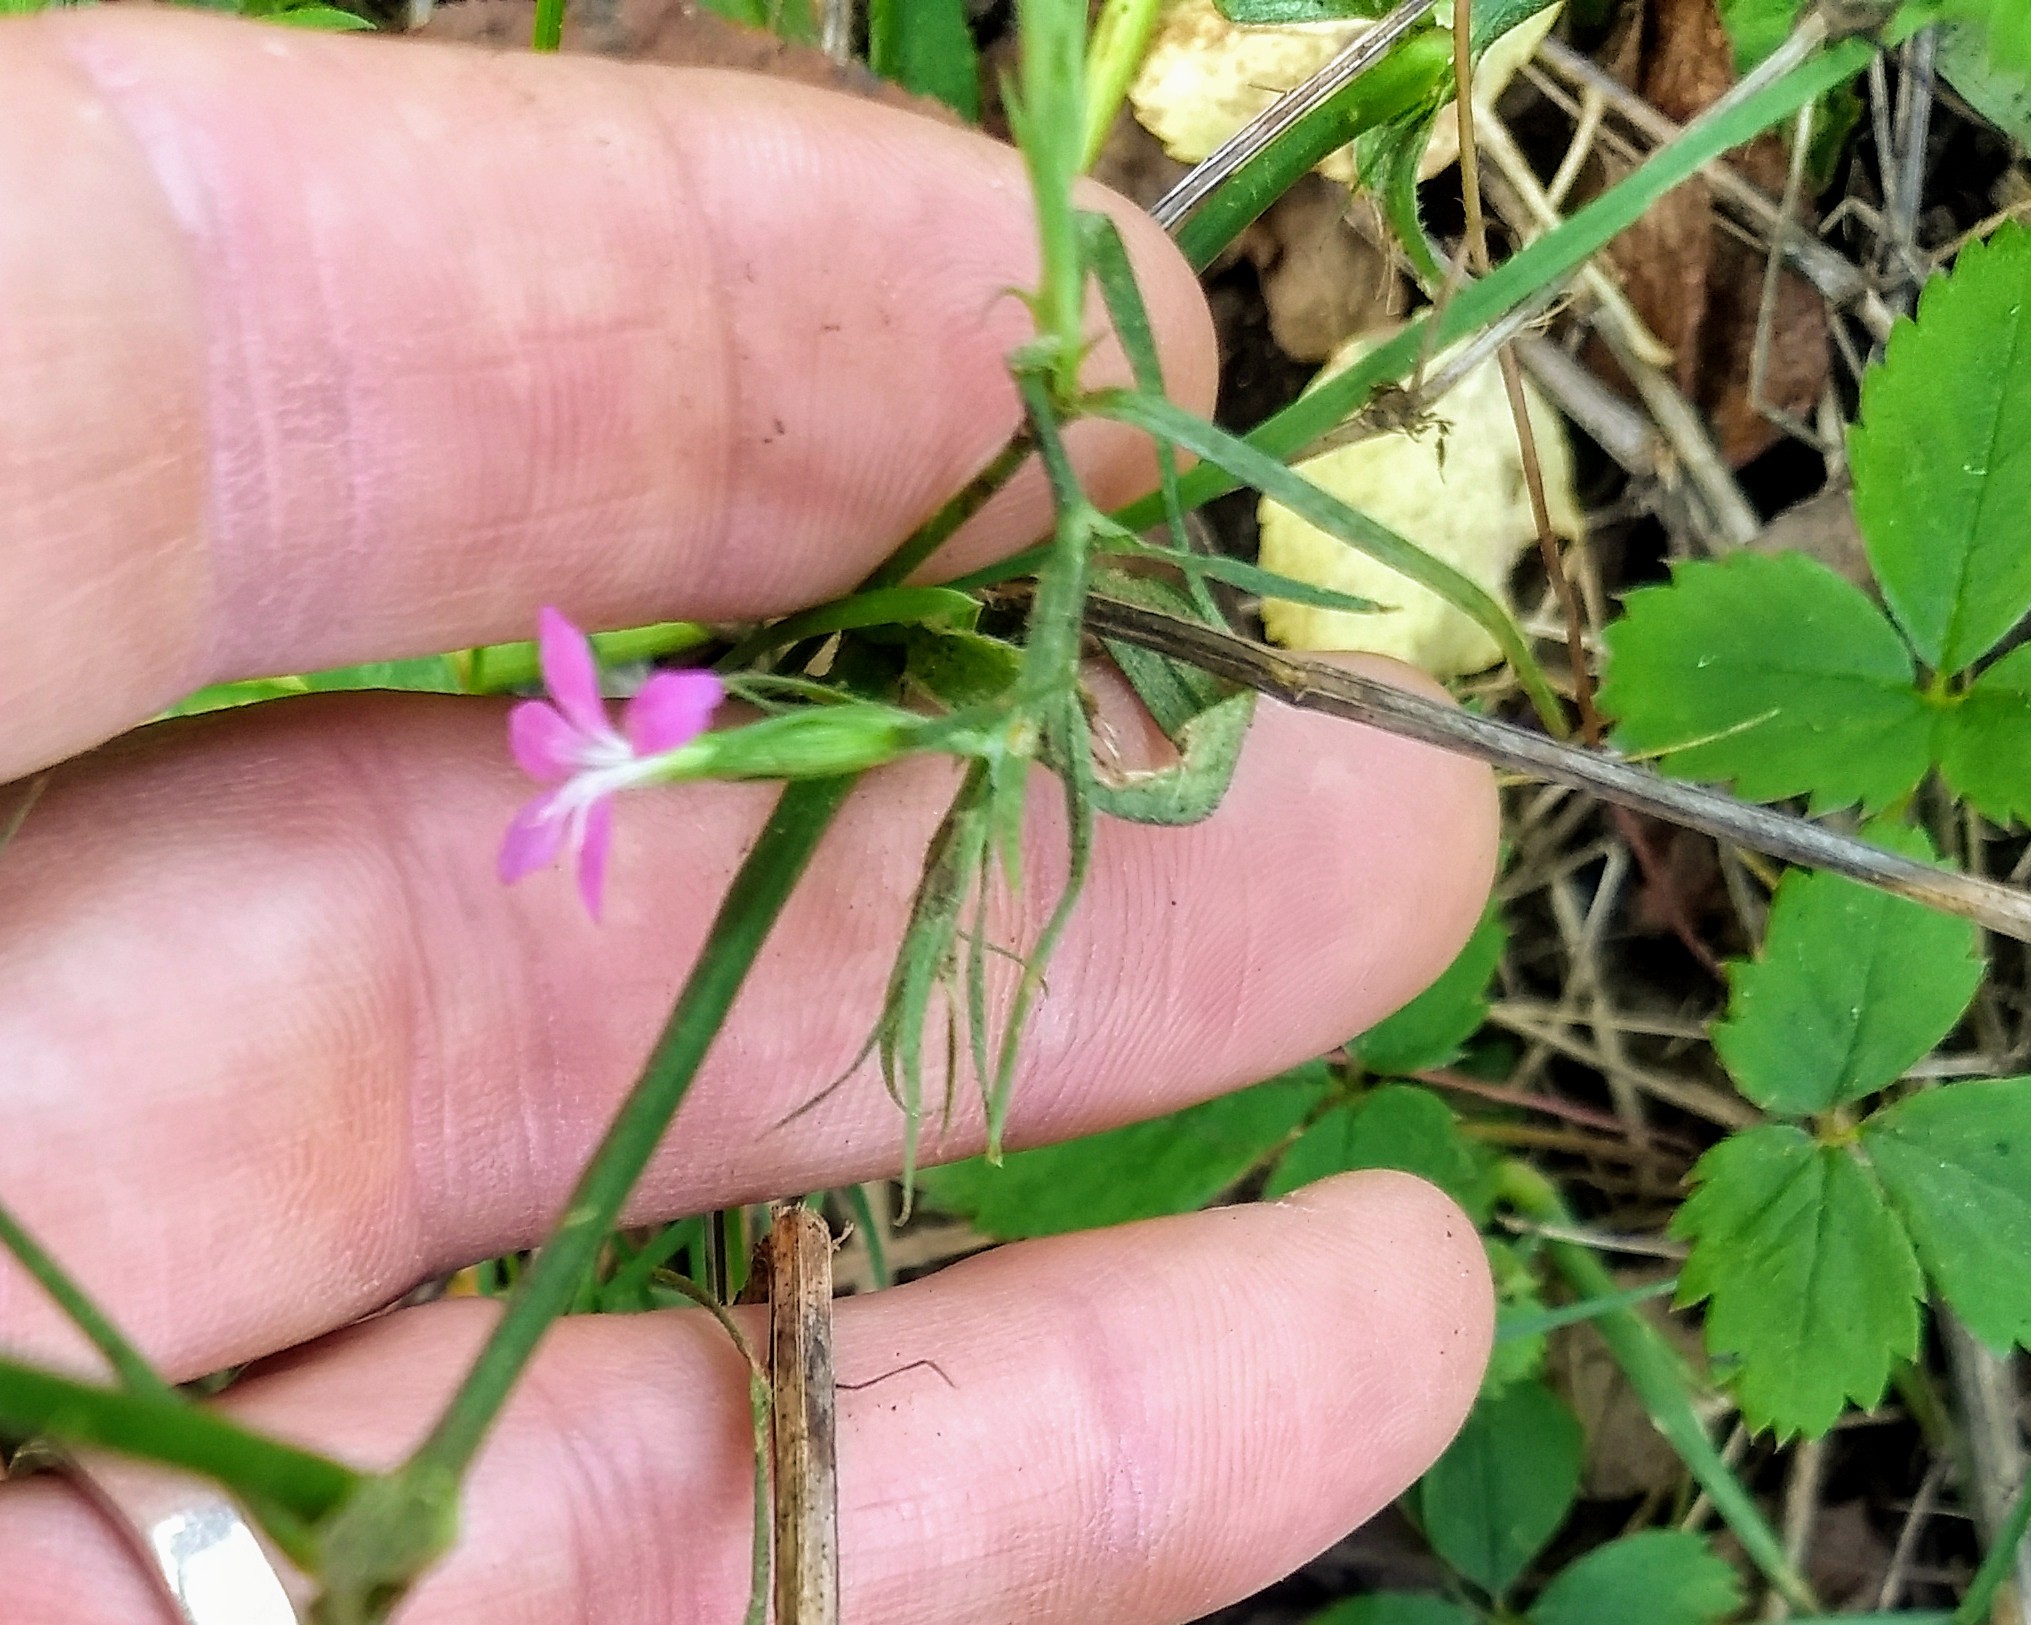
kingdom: Plantae
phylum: Tracheophyta
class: Magnoliopsida
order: Caryophyllales
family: Caryophyllaceae
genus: Dianthus
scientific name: Dianthus armeria
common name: Deptford pink
